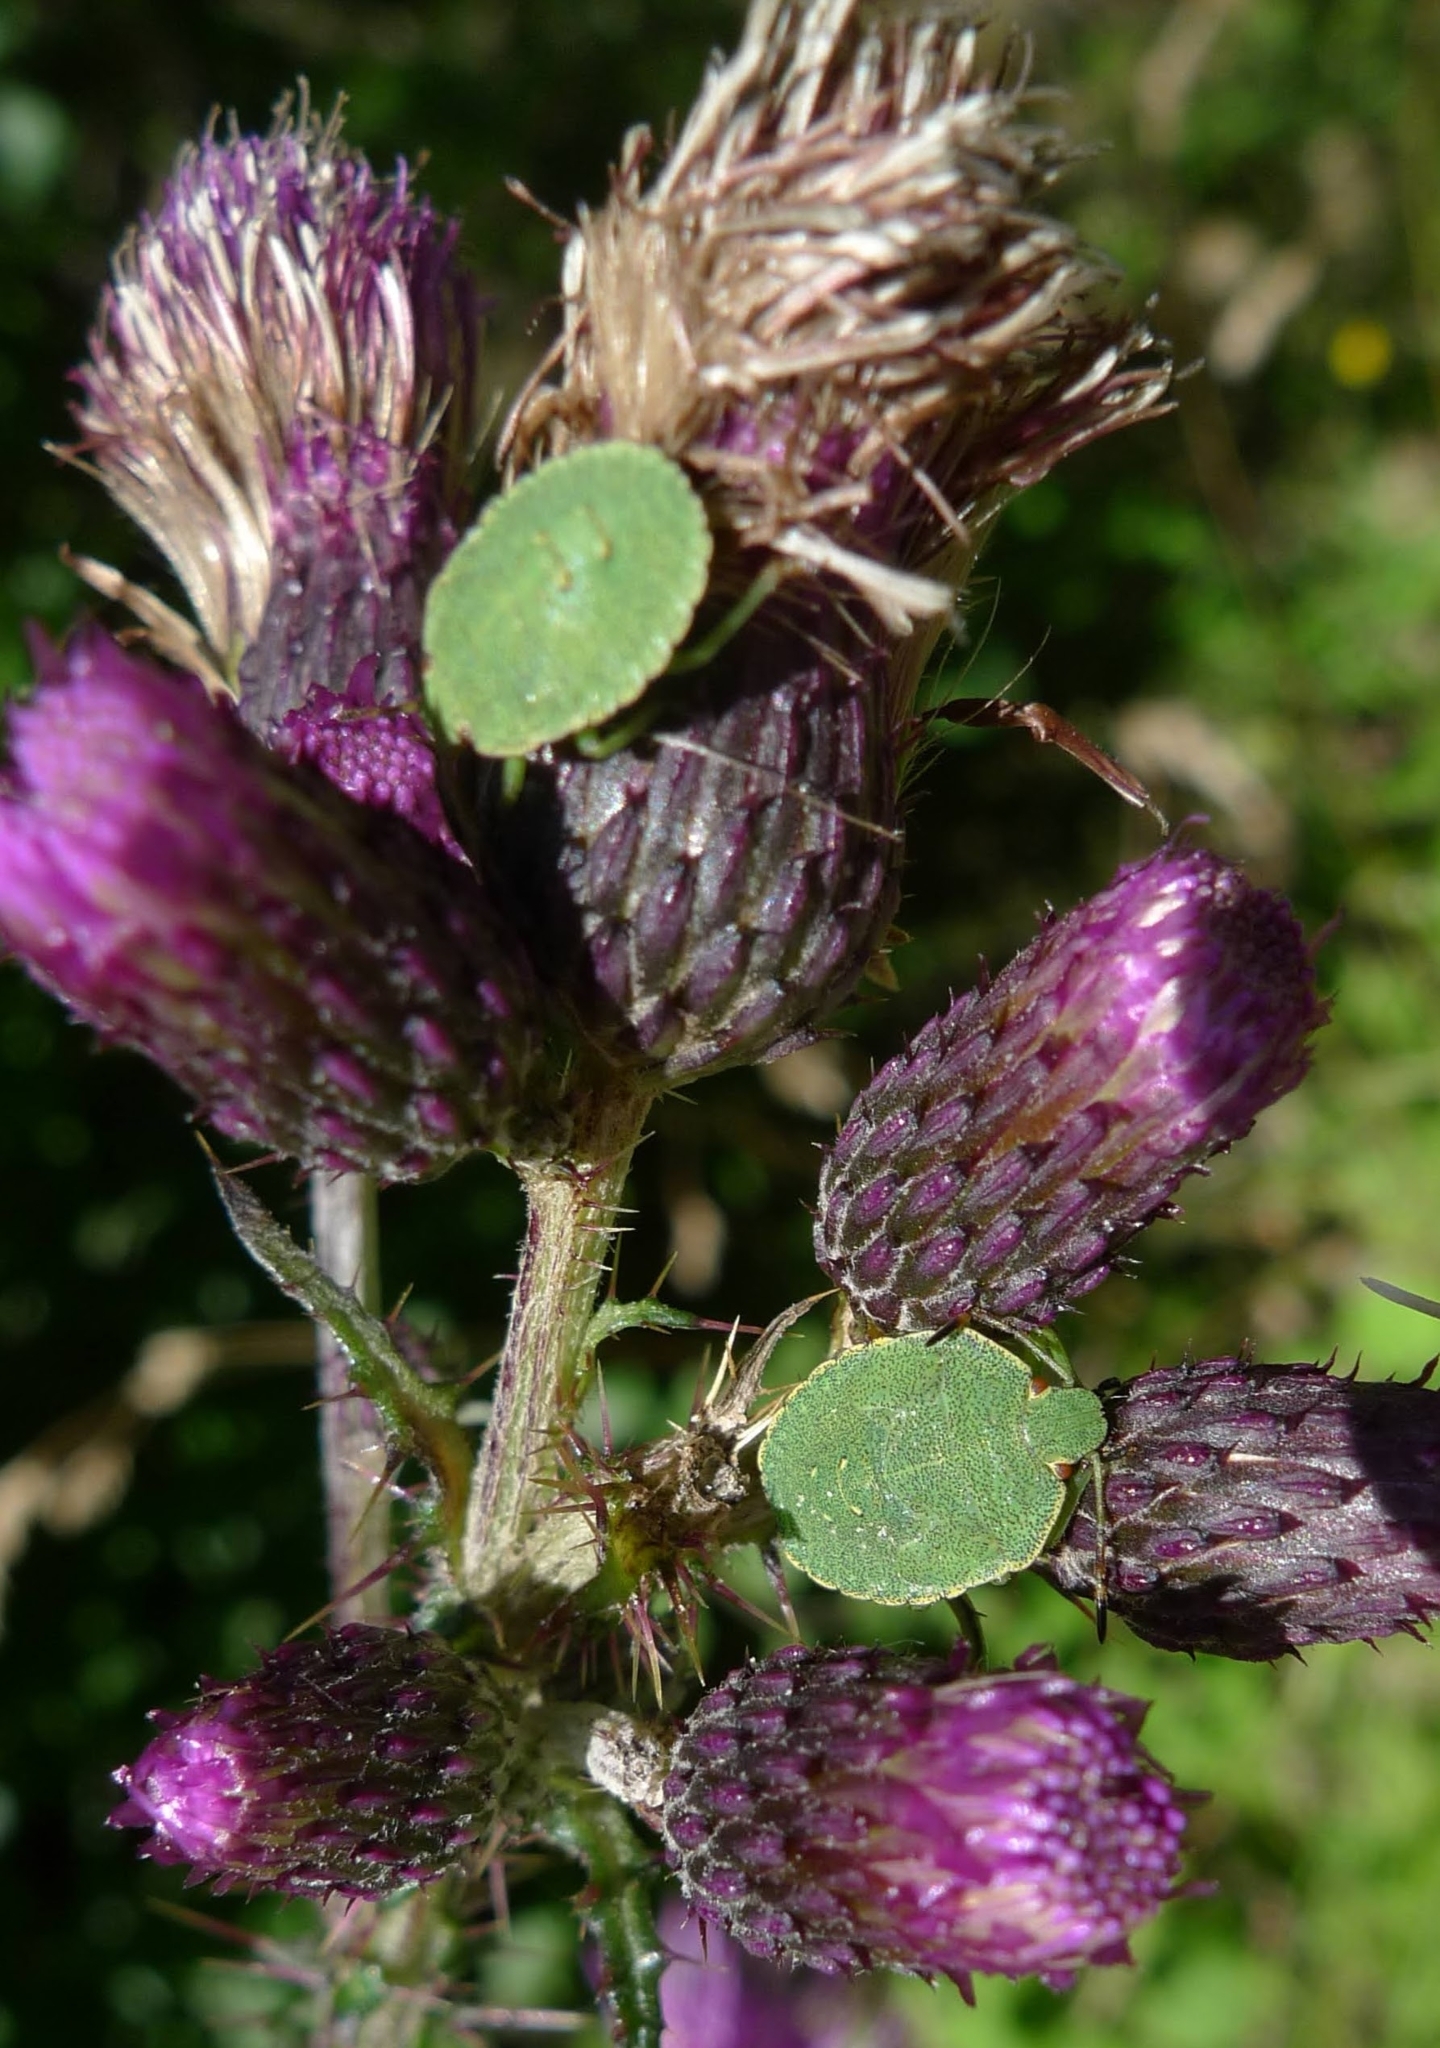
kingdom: Animalia
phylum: Arthropoda
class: Insecta
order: Hemiptera
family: Pentatomidae
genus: Palomena
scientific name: Palomena prasina
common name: Green shieldbug
